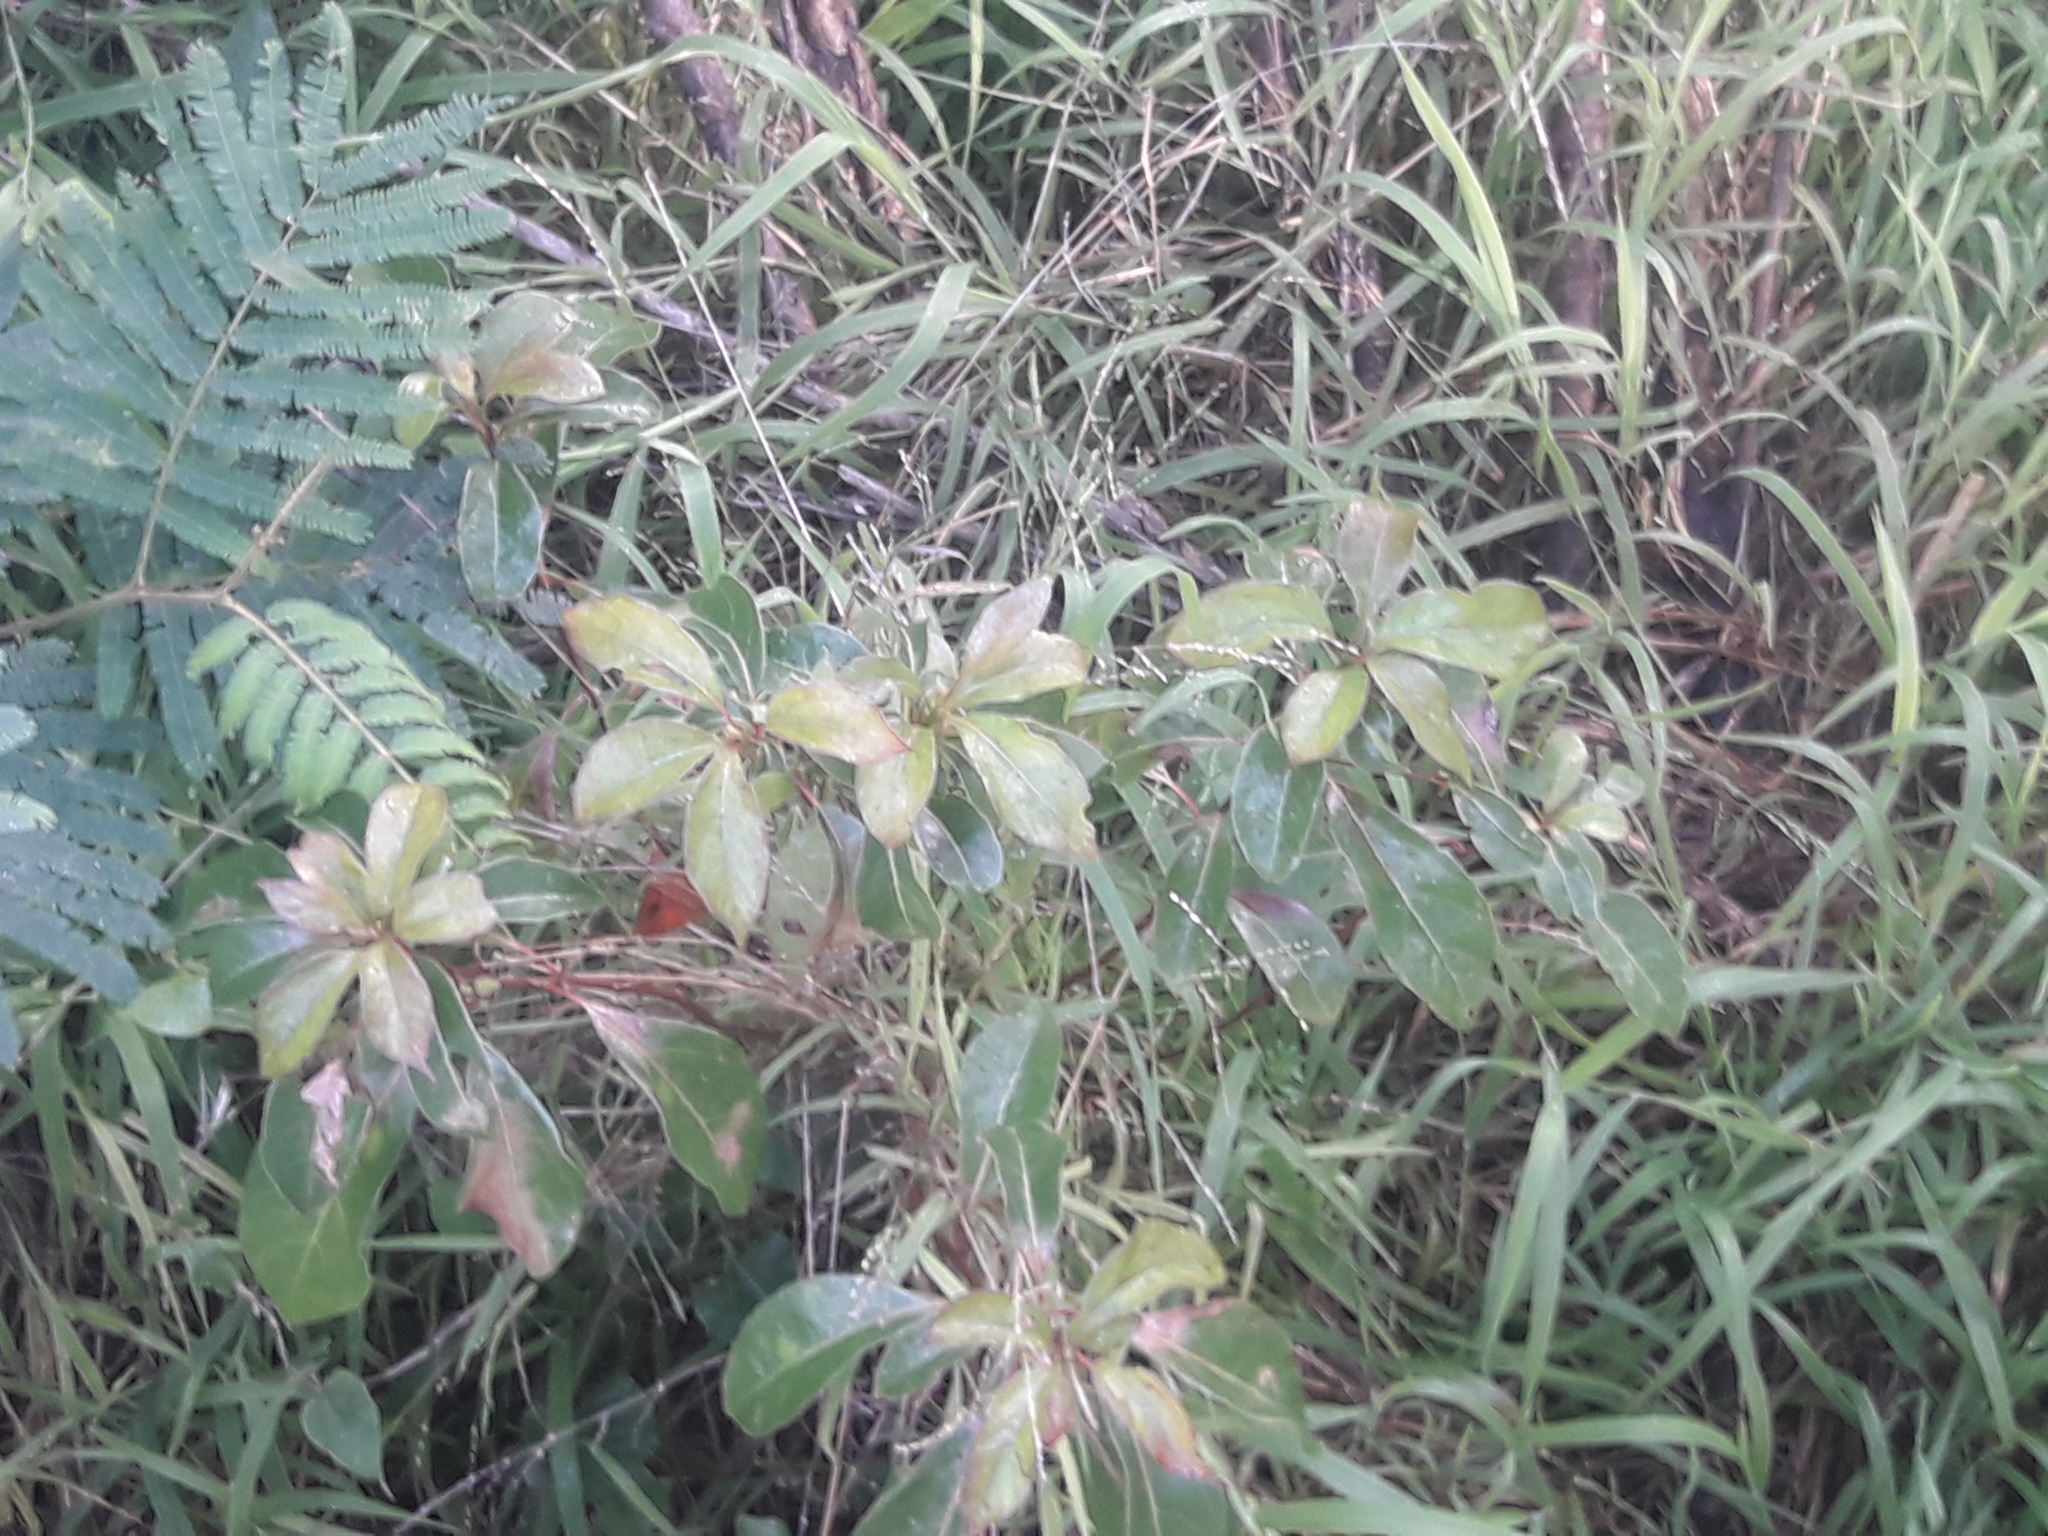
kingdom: Plantae
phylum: Tracheophyta
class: Magnoliopsida
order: Laurales
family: Lauraceae
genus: Cinnamomum
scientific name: Cinnamomum camphora
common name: Camphortree
